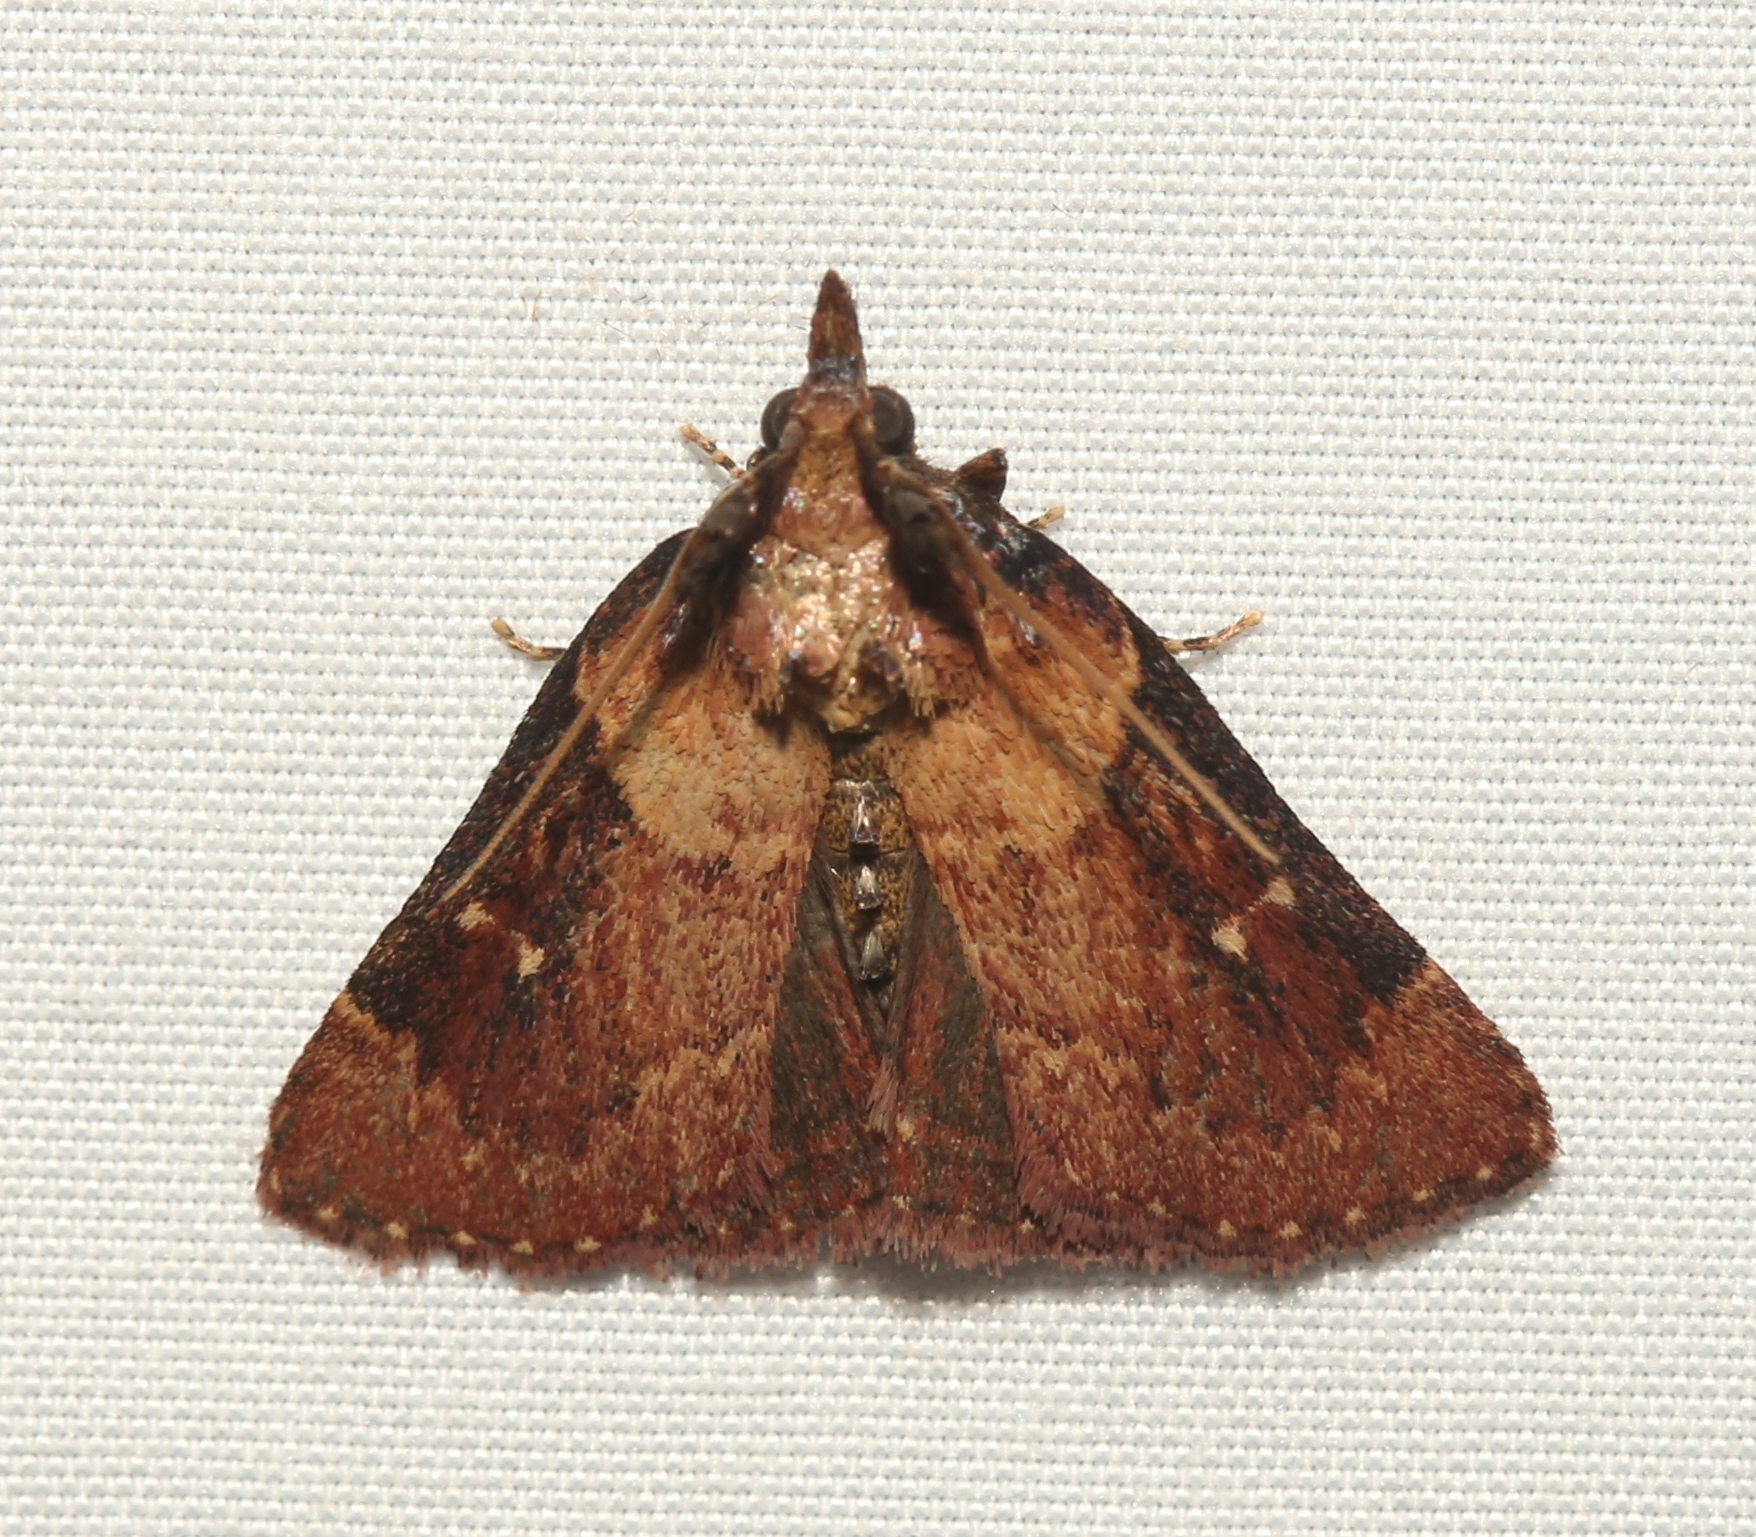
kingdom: Animalia
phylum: Arthropoda
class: Insecta
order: Lepidoptera
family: Pyralidae
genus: Omphalocera
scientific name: Omphalocera munroei
